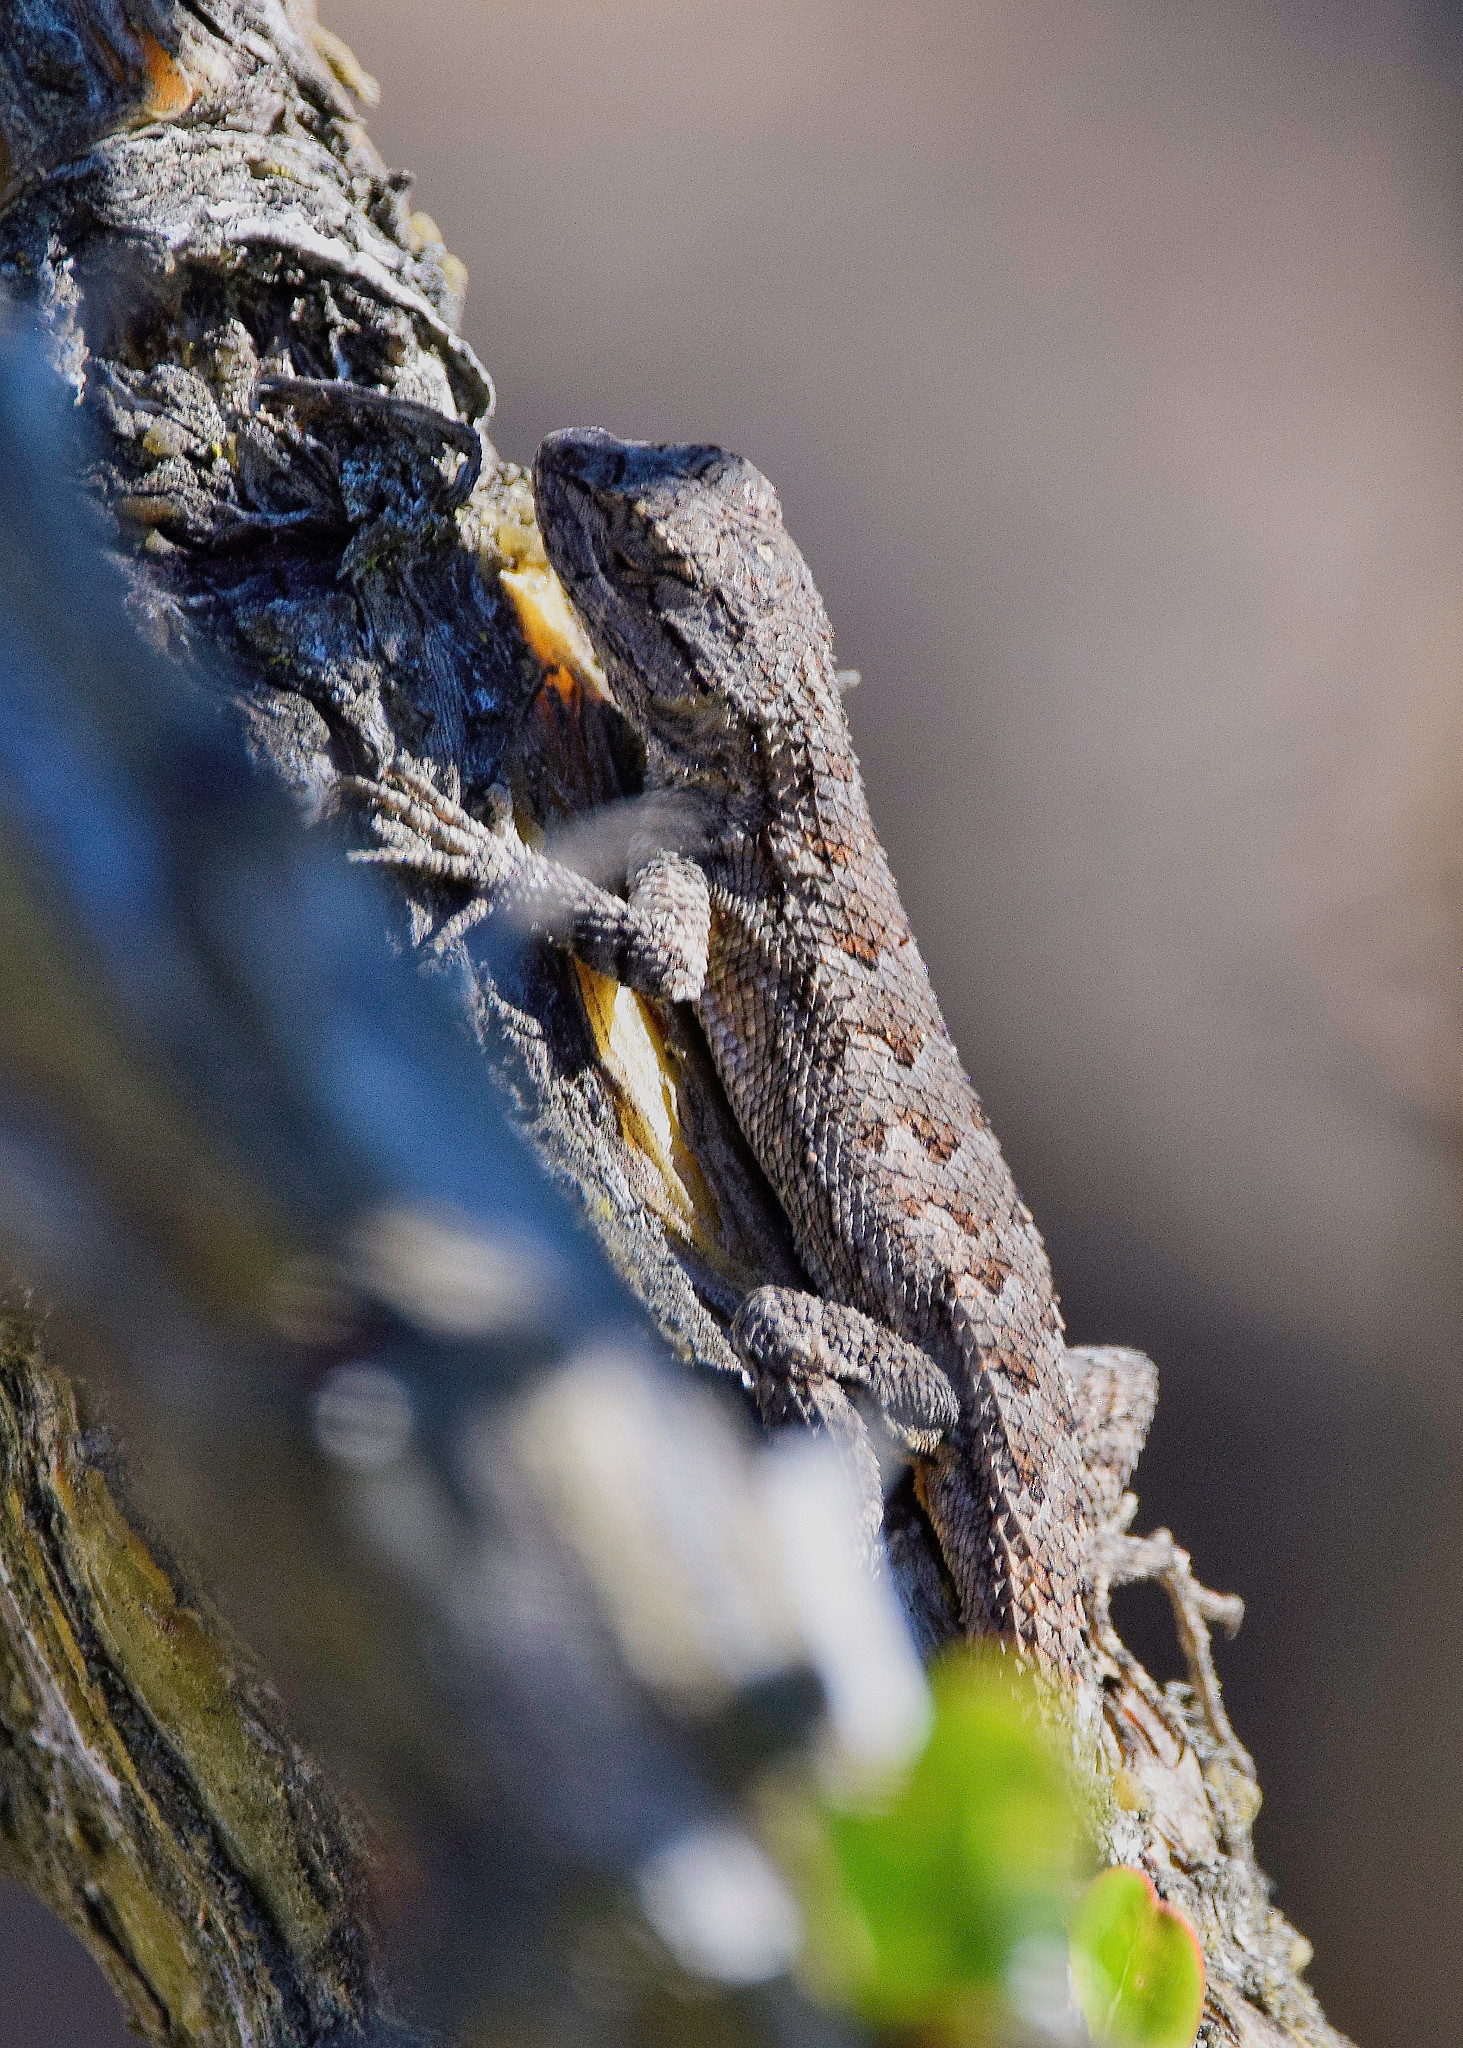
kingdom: Animalia
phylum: Chordata
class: Squamata
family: Phrynosomatidae
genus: Sceloporus
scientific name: Sceloporus occidentalis
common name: Western fence lizard
